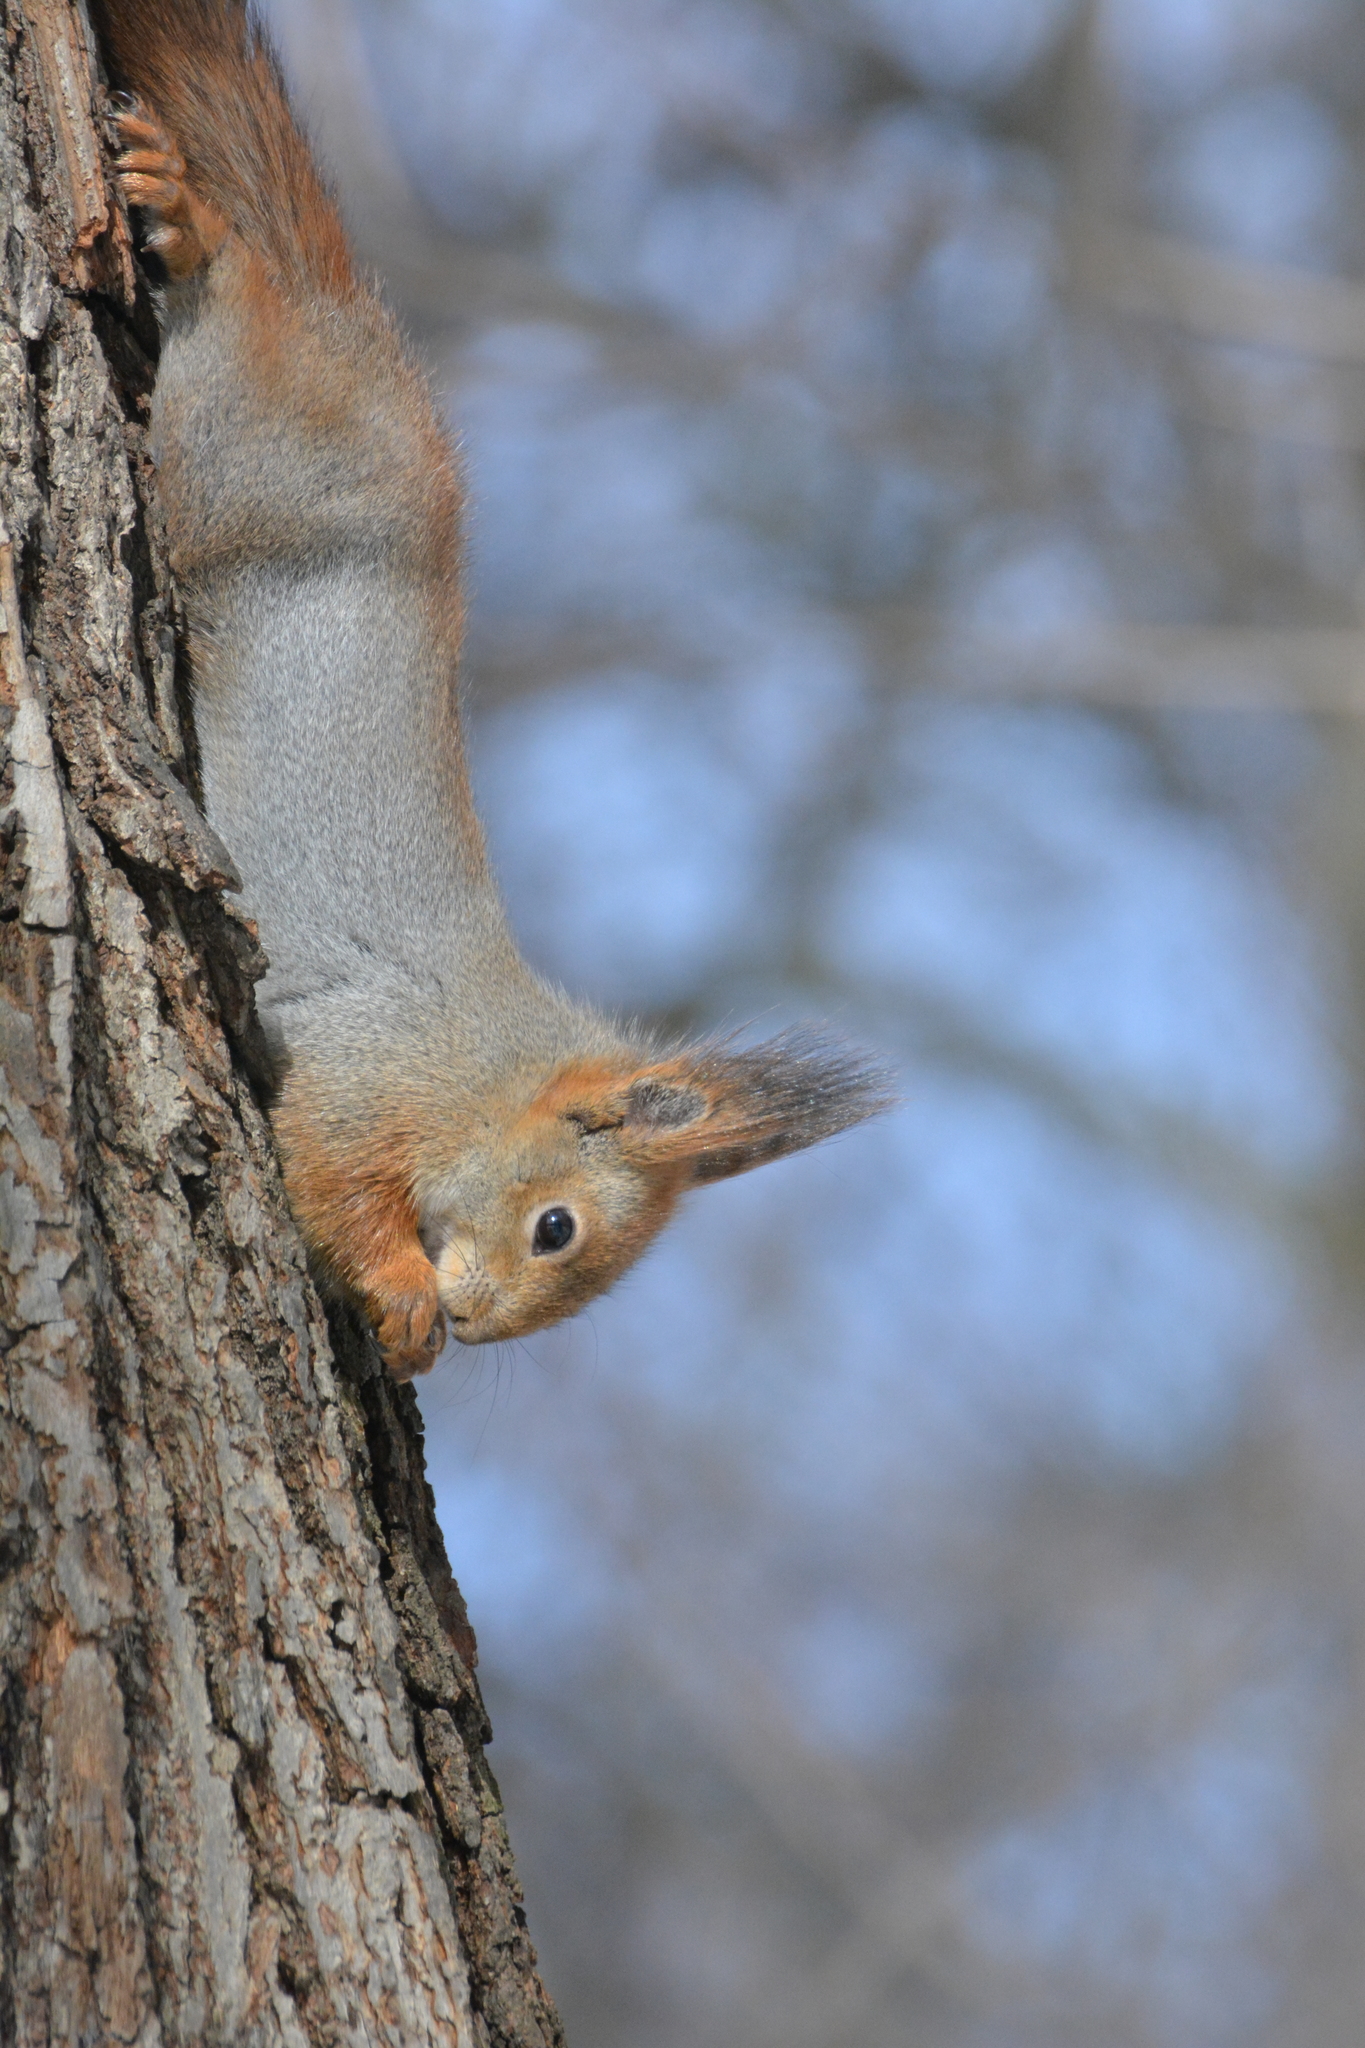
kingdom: Animalia
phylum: Chordata
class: Mammalia
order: Rodentia
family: Sciuridae
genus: Sciurus
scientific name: Sciurus vulgaris
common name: Eurasian red squirrel
